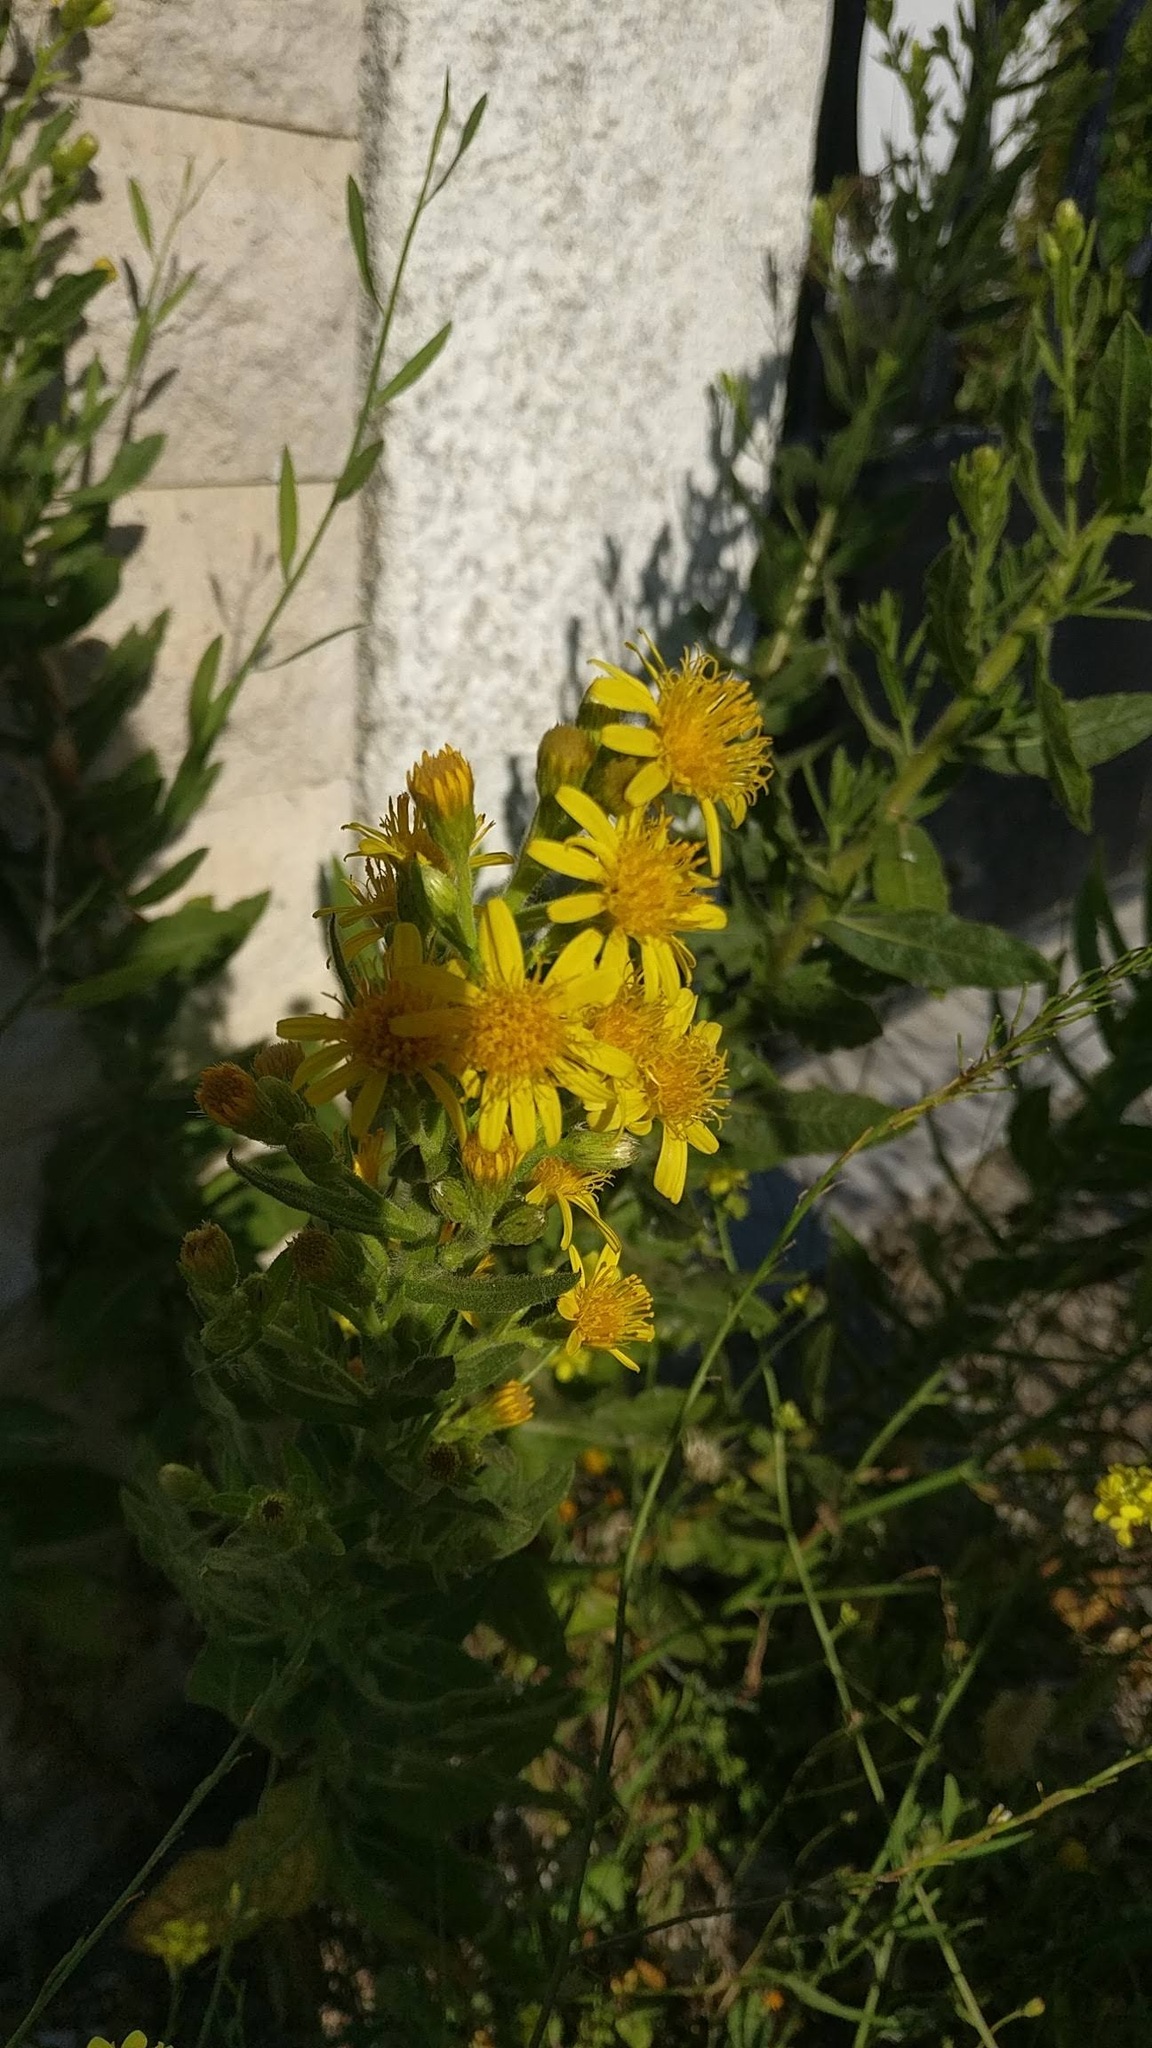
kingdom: Plantae
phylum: Tracheophyta
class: Magnoliopsida
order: Asterales
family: Asteraceae
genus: Dittrichia
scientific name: Dittrichia viscosa
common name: Woody fleabane
